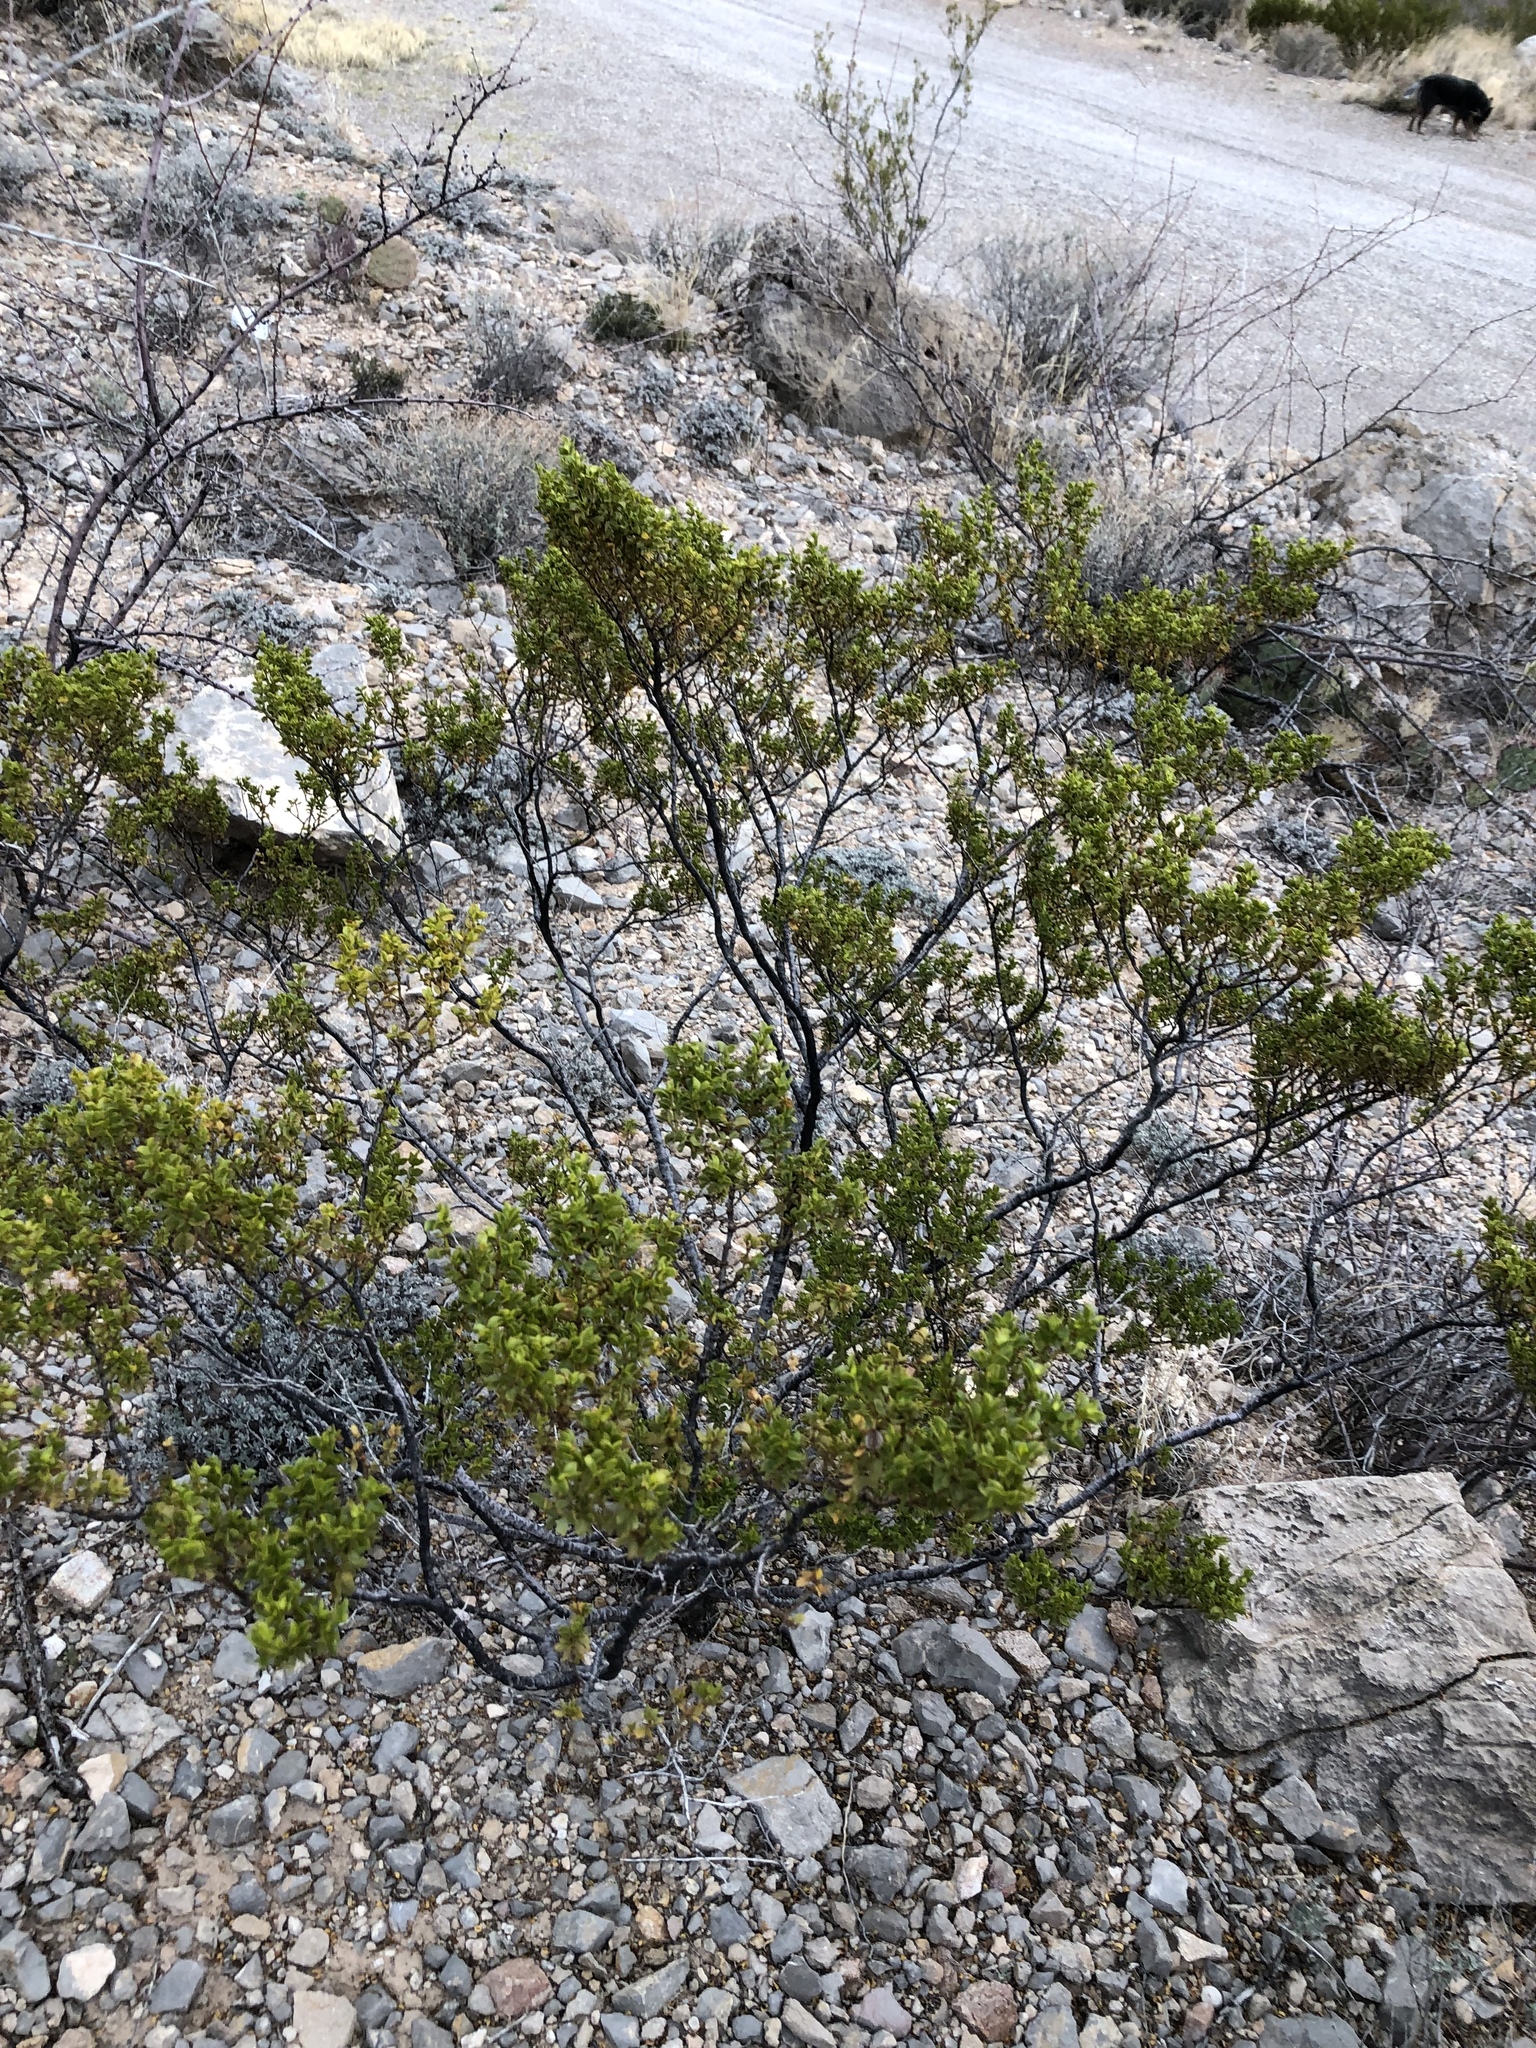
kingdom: Plantae
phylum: Tracheophyta
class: Magnoliopsida
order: Zygophyllales
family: Zygophyllaceae
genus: Larrea
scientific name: Larrea tridentata
